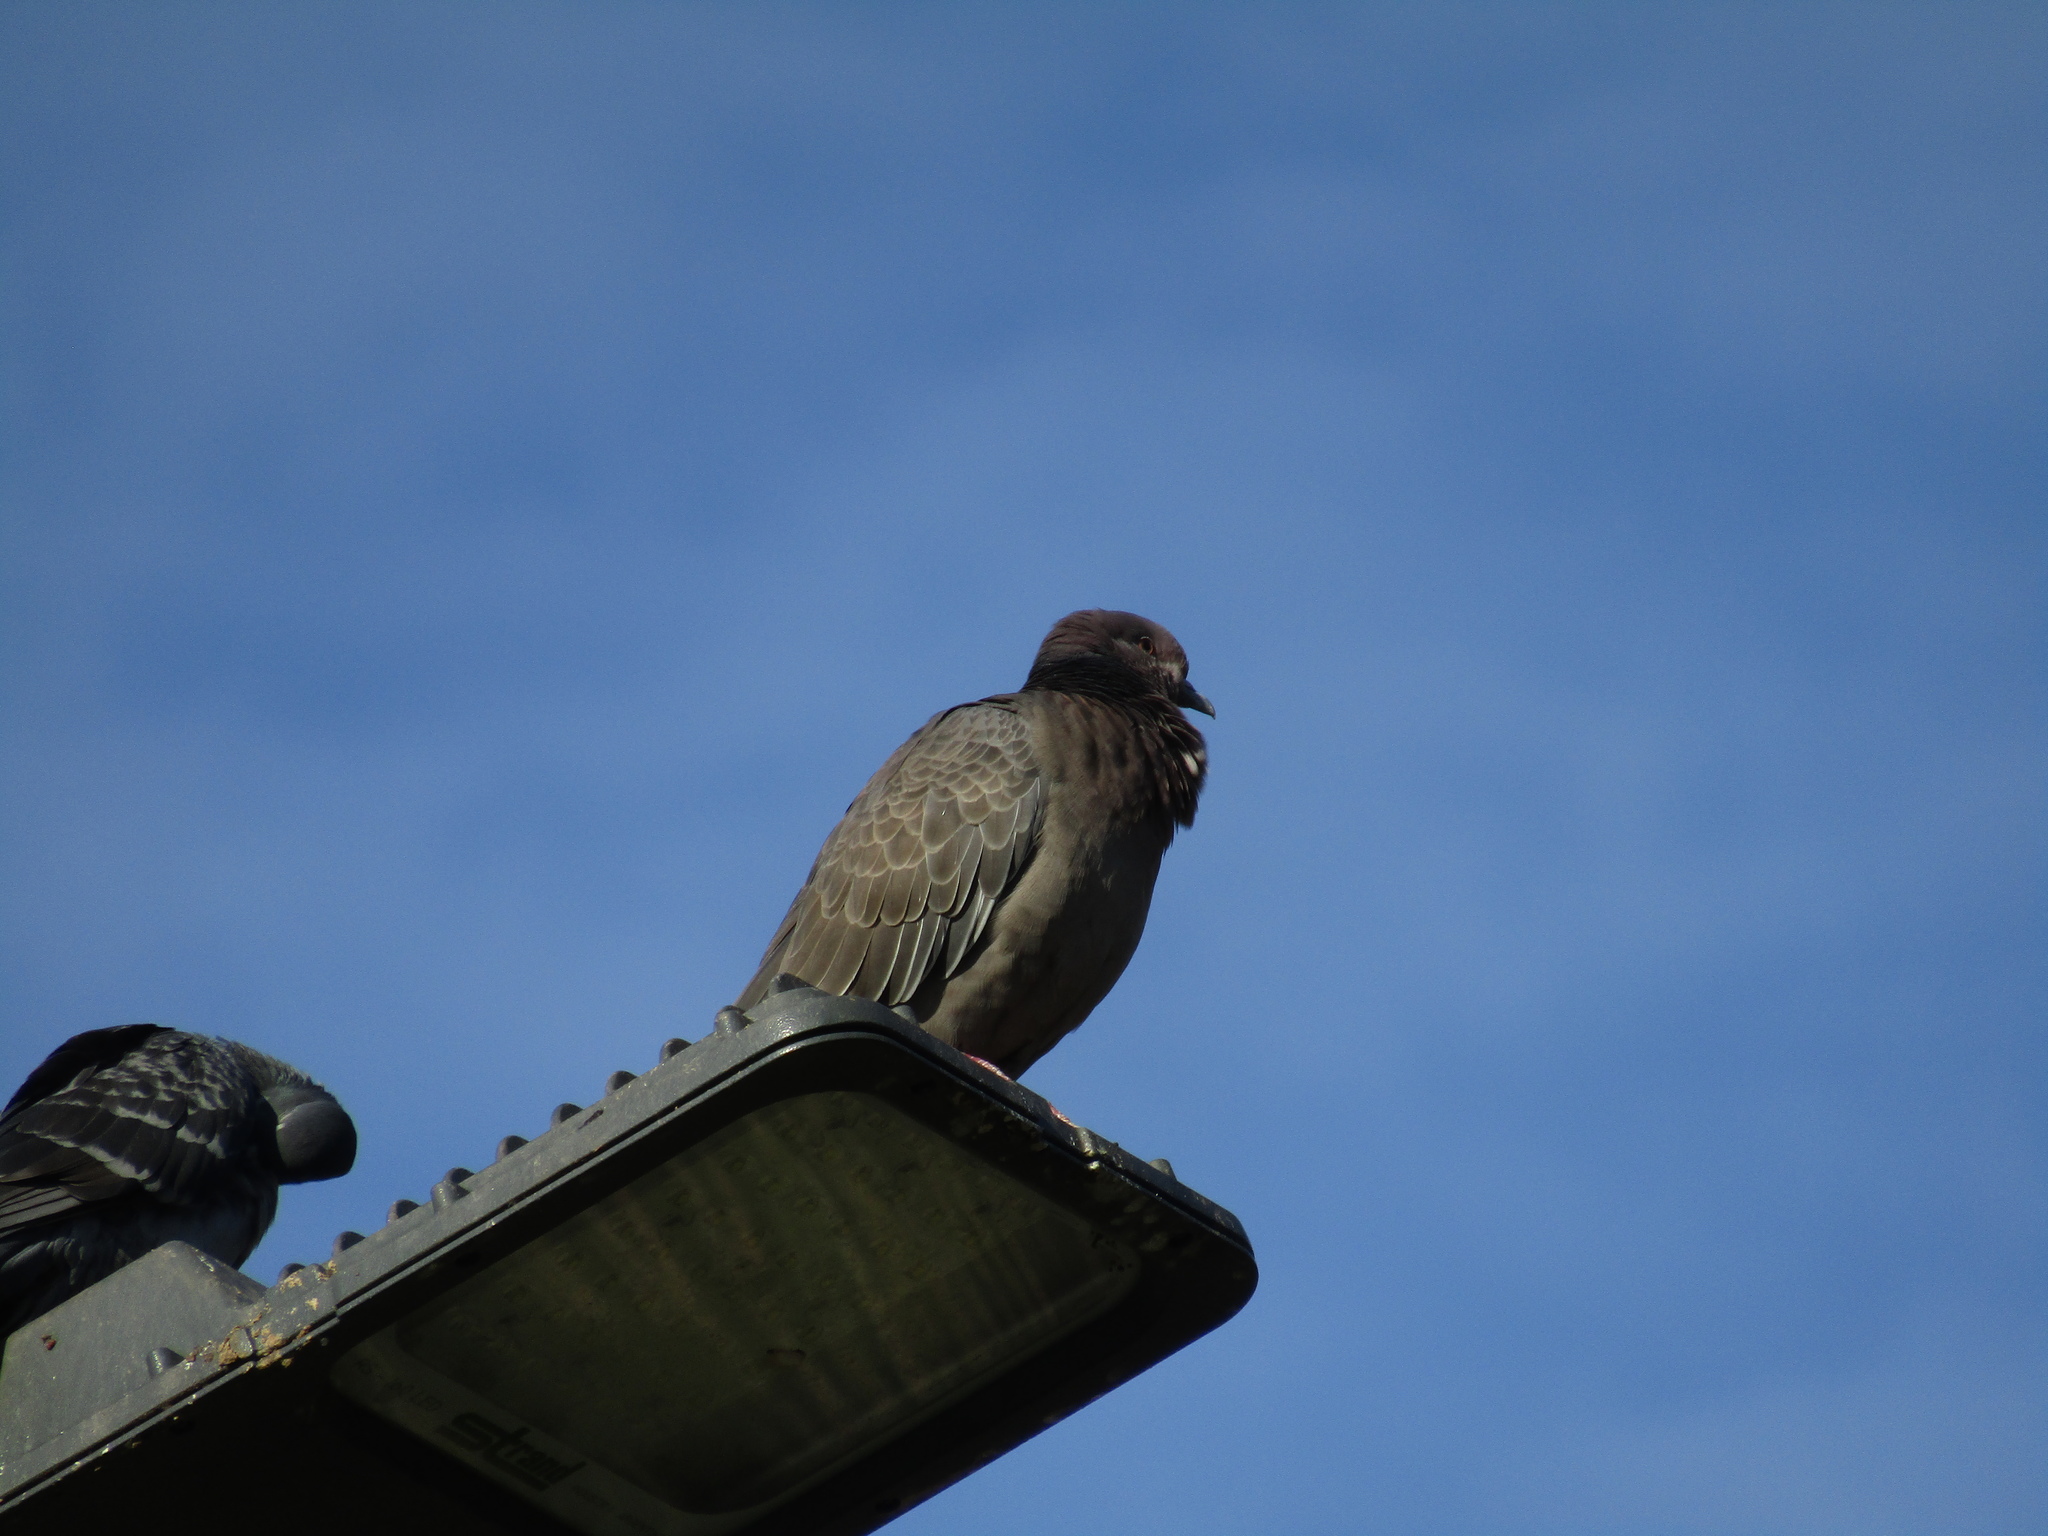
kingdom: Animalia
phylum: Chordata
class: Aves
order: Columbiformes
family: Columbidae
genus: Patagioenas
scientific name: Patagioenas picazuro
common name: Picazuro pigeon
